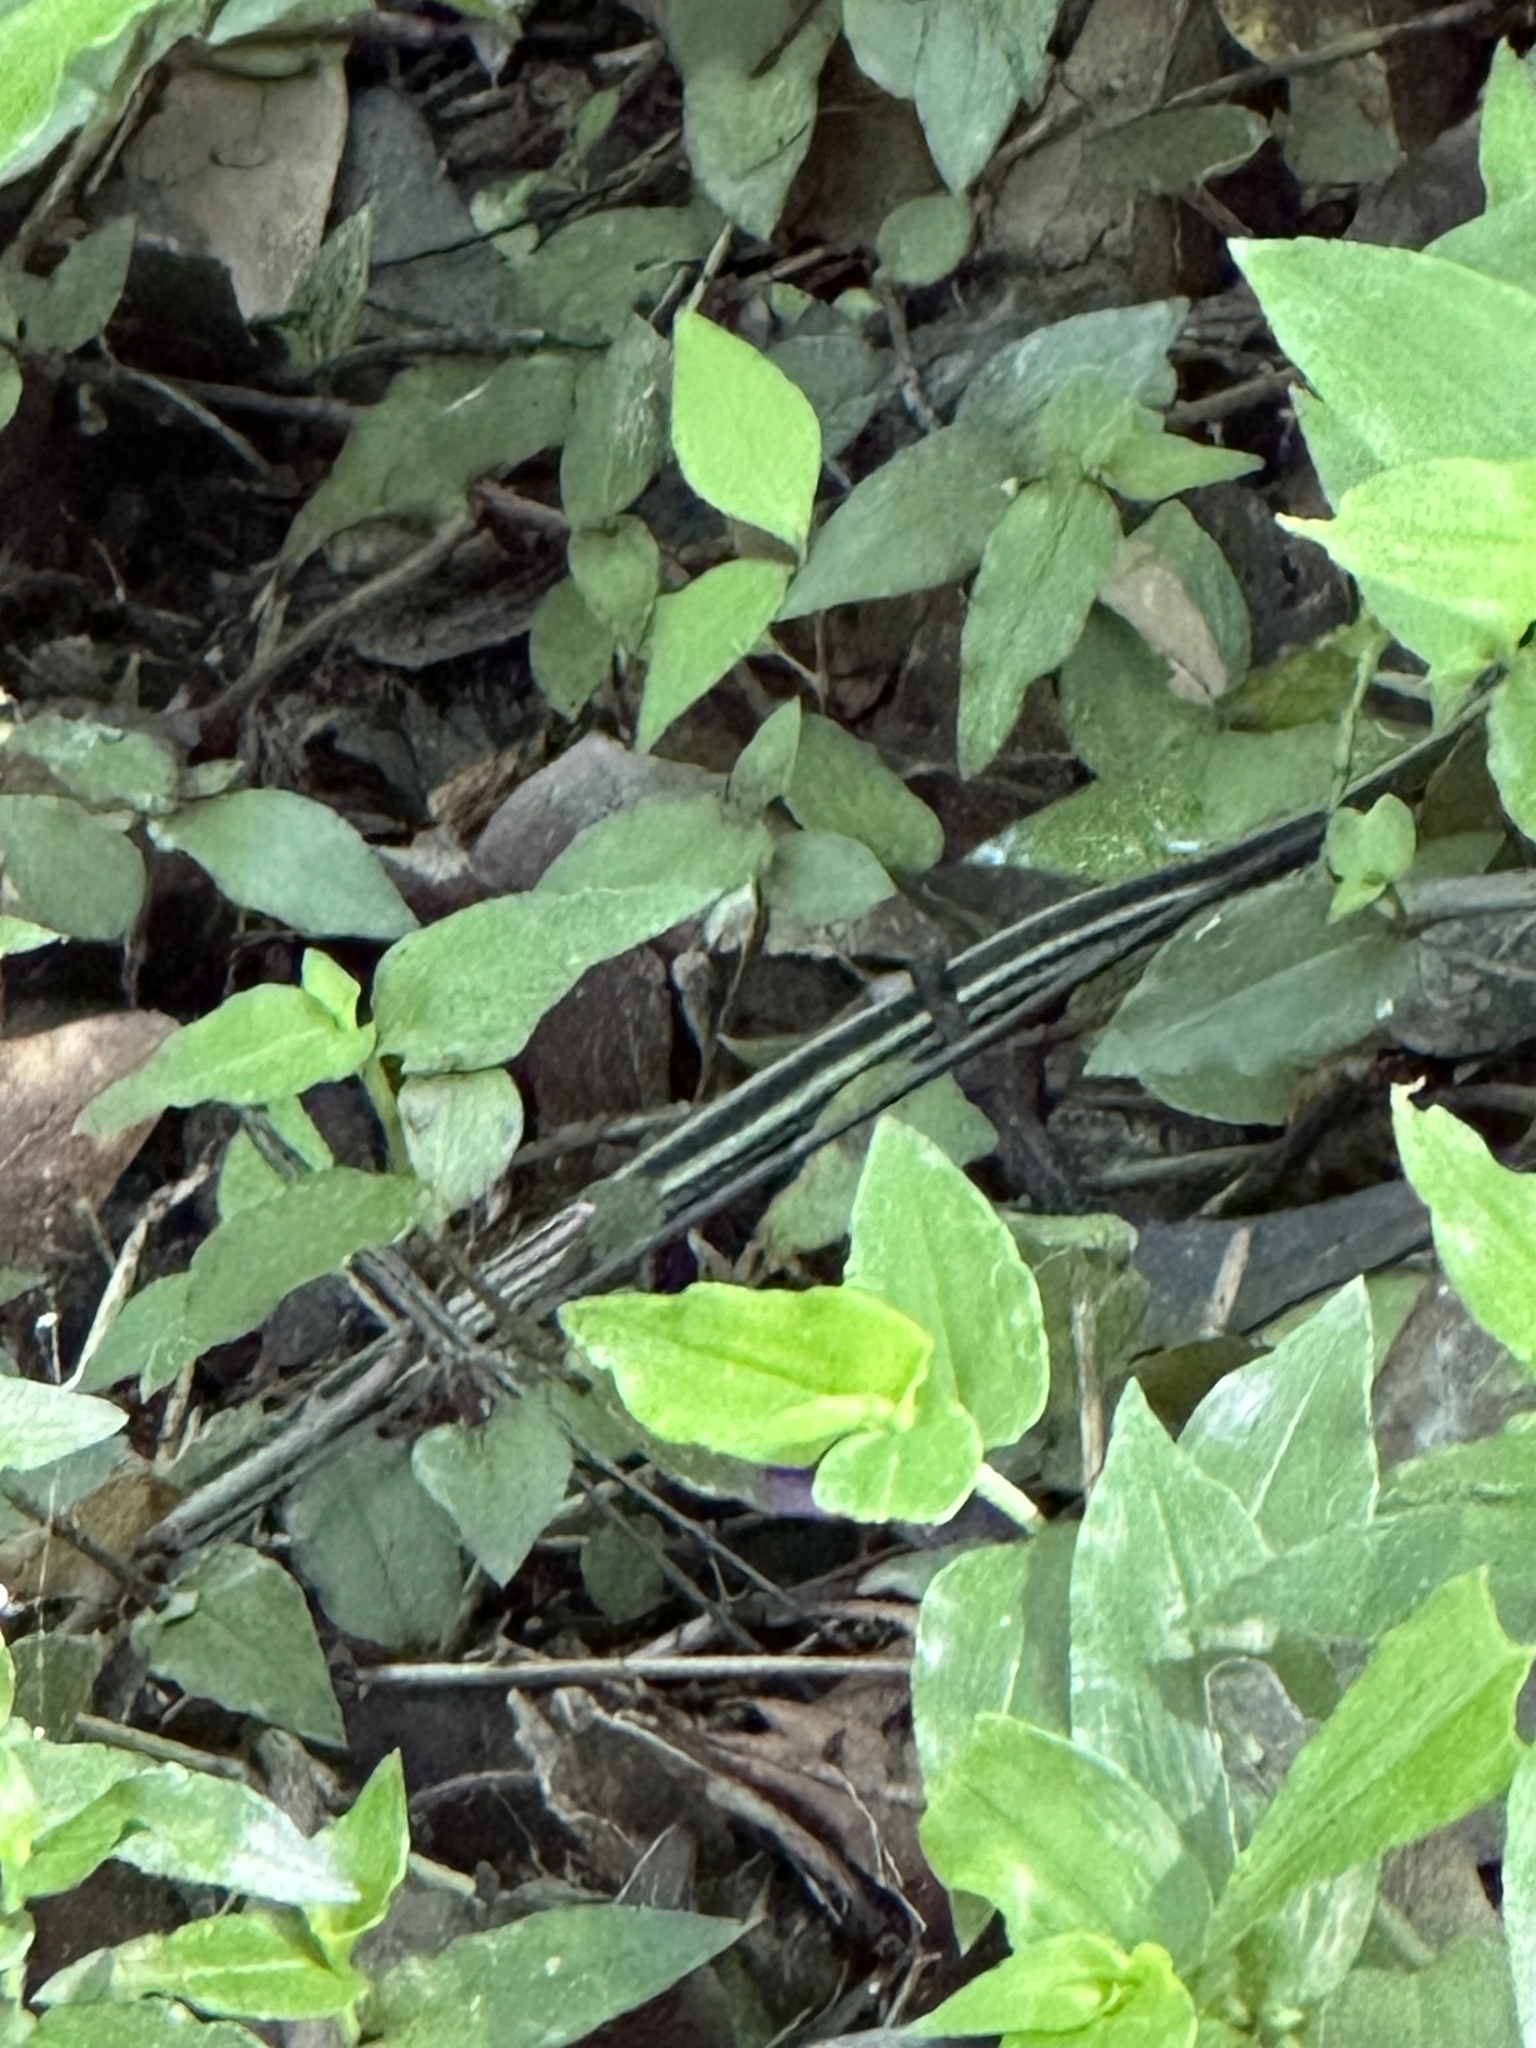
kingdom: Animalia
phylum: Chordata
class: Squamata
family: Colubridae
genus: Thamnophis
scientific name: Thamnophis proximus
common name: Western ribbon snake
